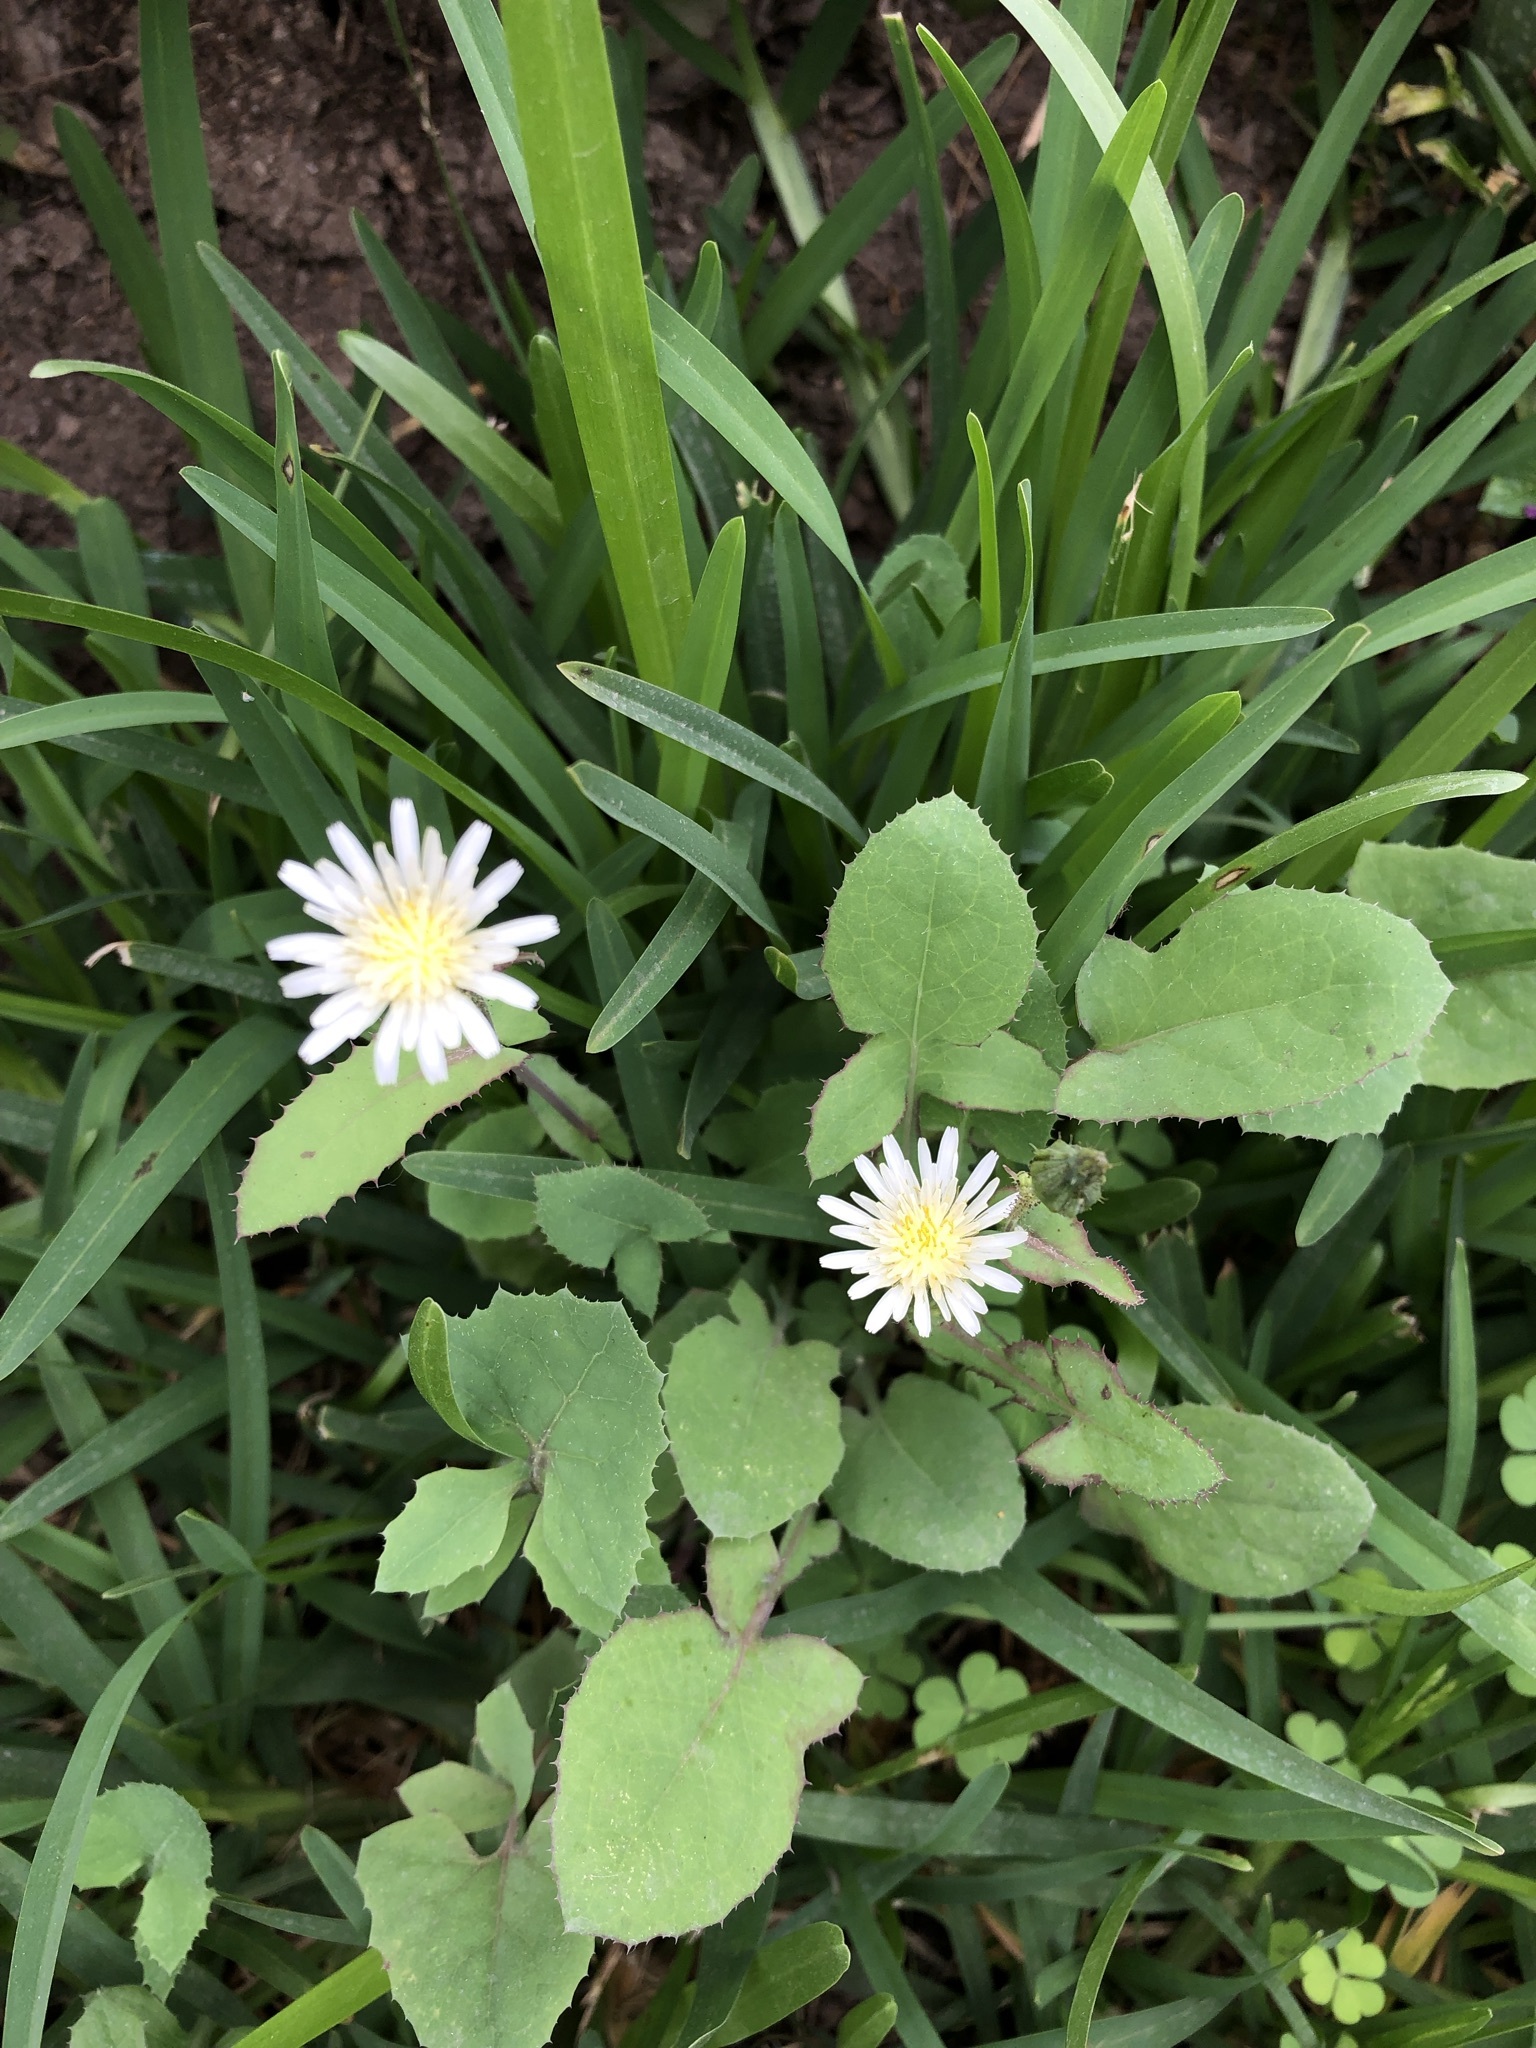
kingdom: Plantae
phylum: Tracheophyta
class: Magnoliopsida
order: Asterales
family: Asteraceae
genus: Sonchus
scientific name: Sonchus oleraceus
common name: Common sowthistle
